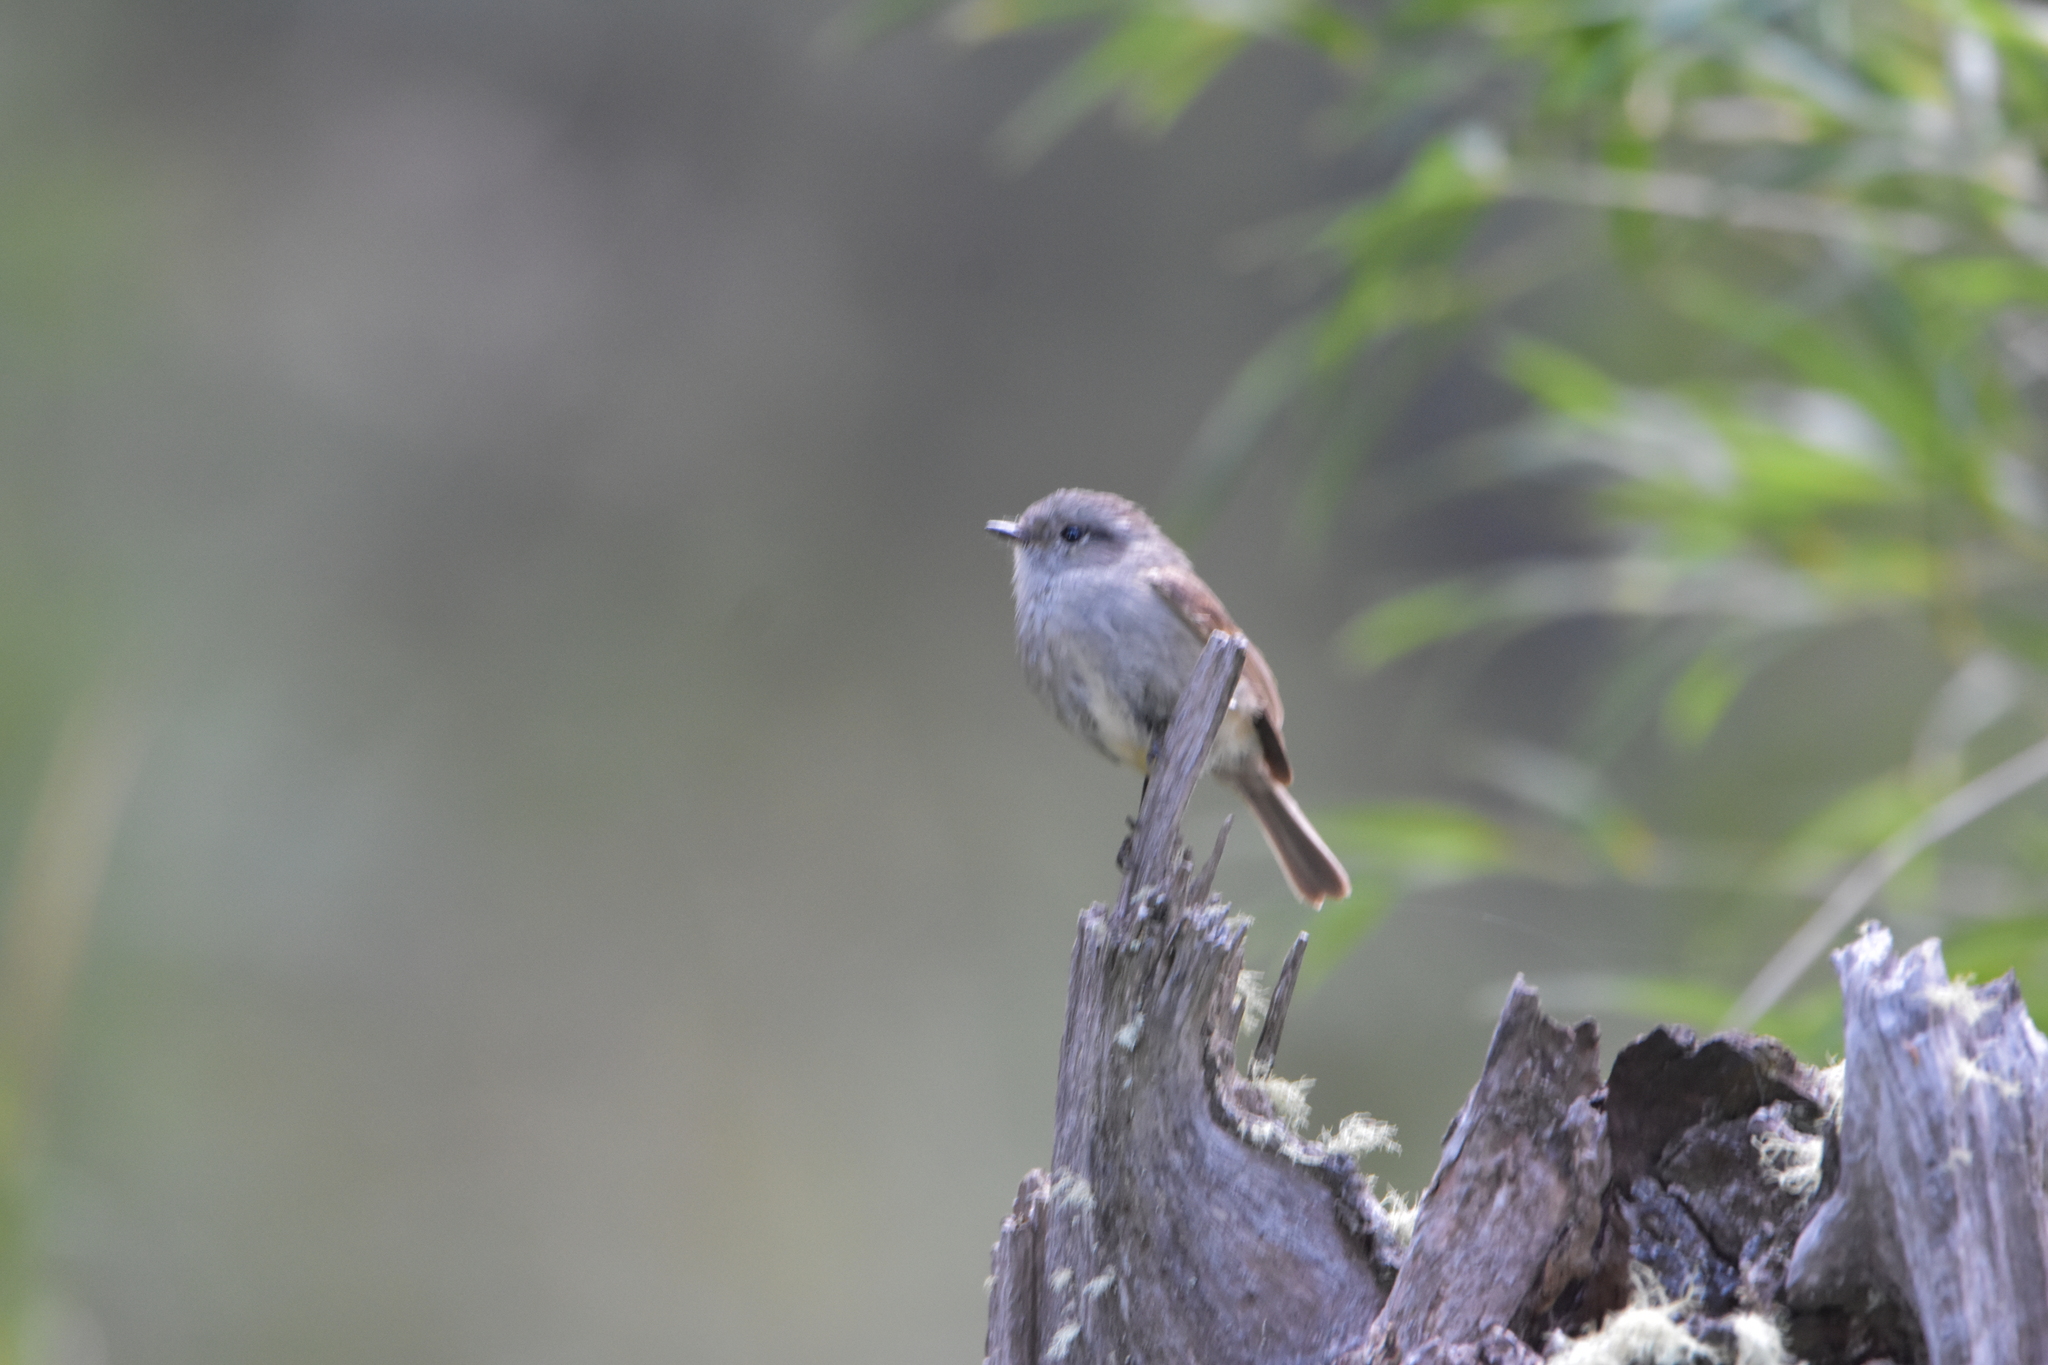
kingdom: Animalia
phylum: Chordata
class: Aves
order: Passeriformes
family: Tyrannidae
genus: Colorhamphus
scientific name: Colorhamphus parvirostris
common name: Patagonian tyrant
